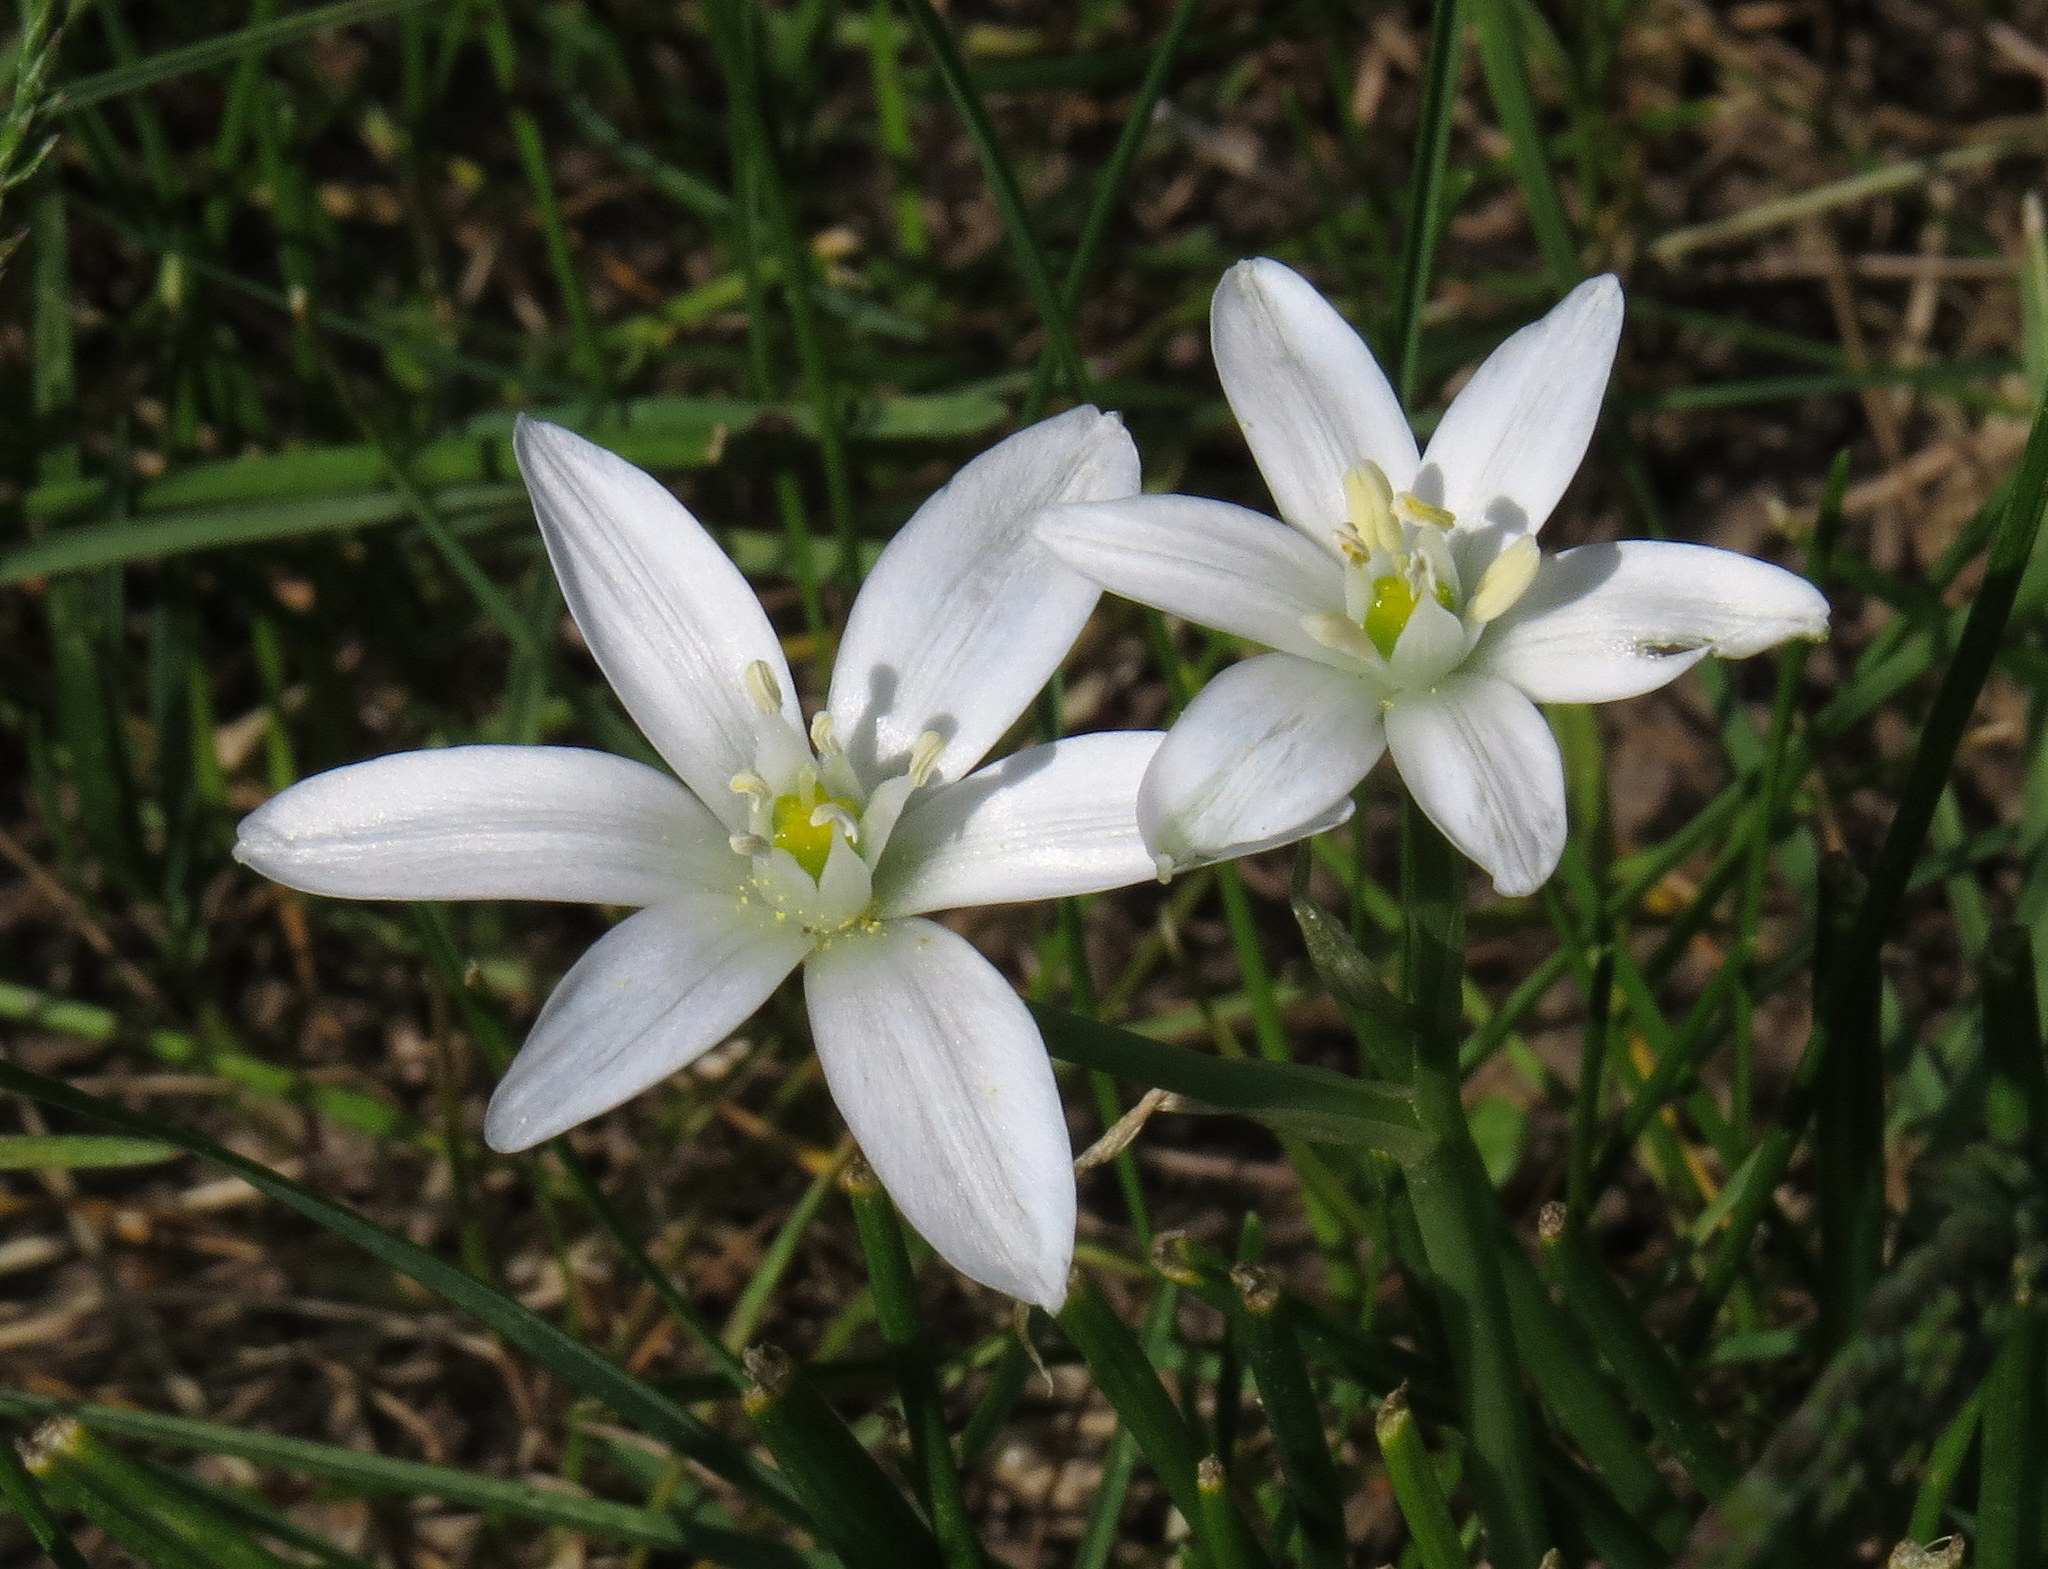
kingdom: Plantae
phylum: Tracheophyta
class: Liliopsida
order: Asparagales
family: Asparagaceae
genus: Ornithogalum
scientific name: Ornithogalum umbellatum
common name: Garden star-of-bethlehem
